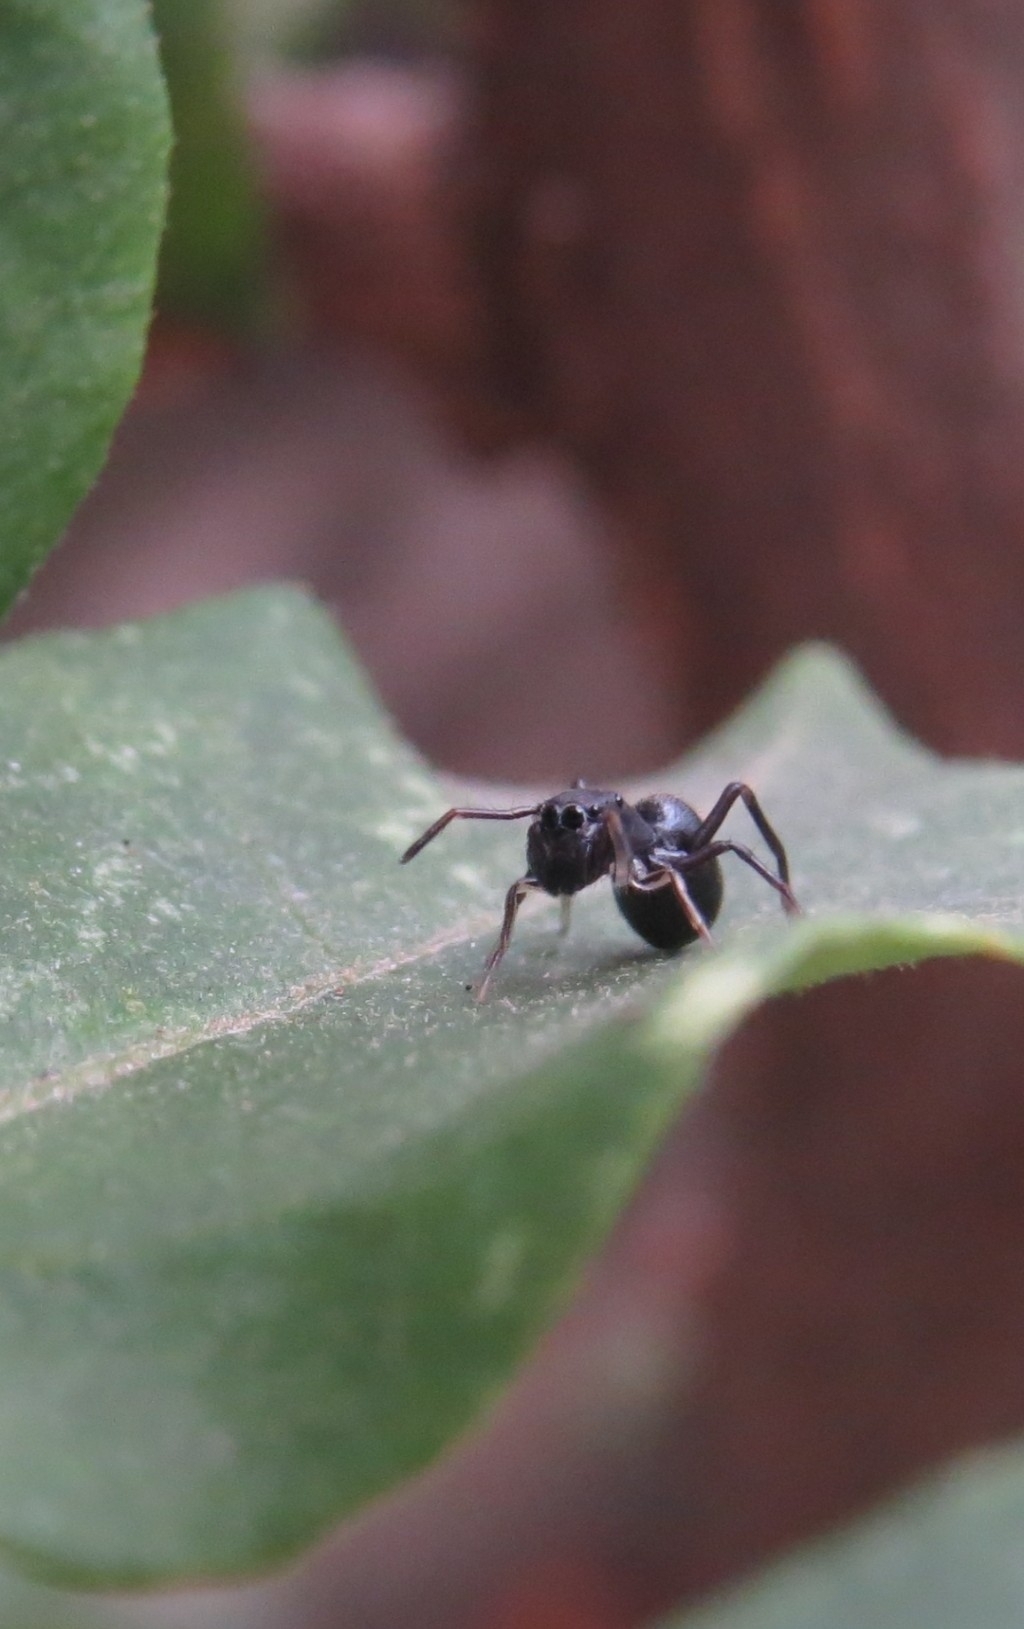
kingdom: Animalia
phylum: Arthropoda
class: Arachnida
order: Araneae
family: Salticidae
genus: Sarinda
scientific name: Sarinda marcosi
